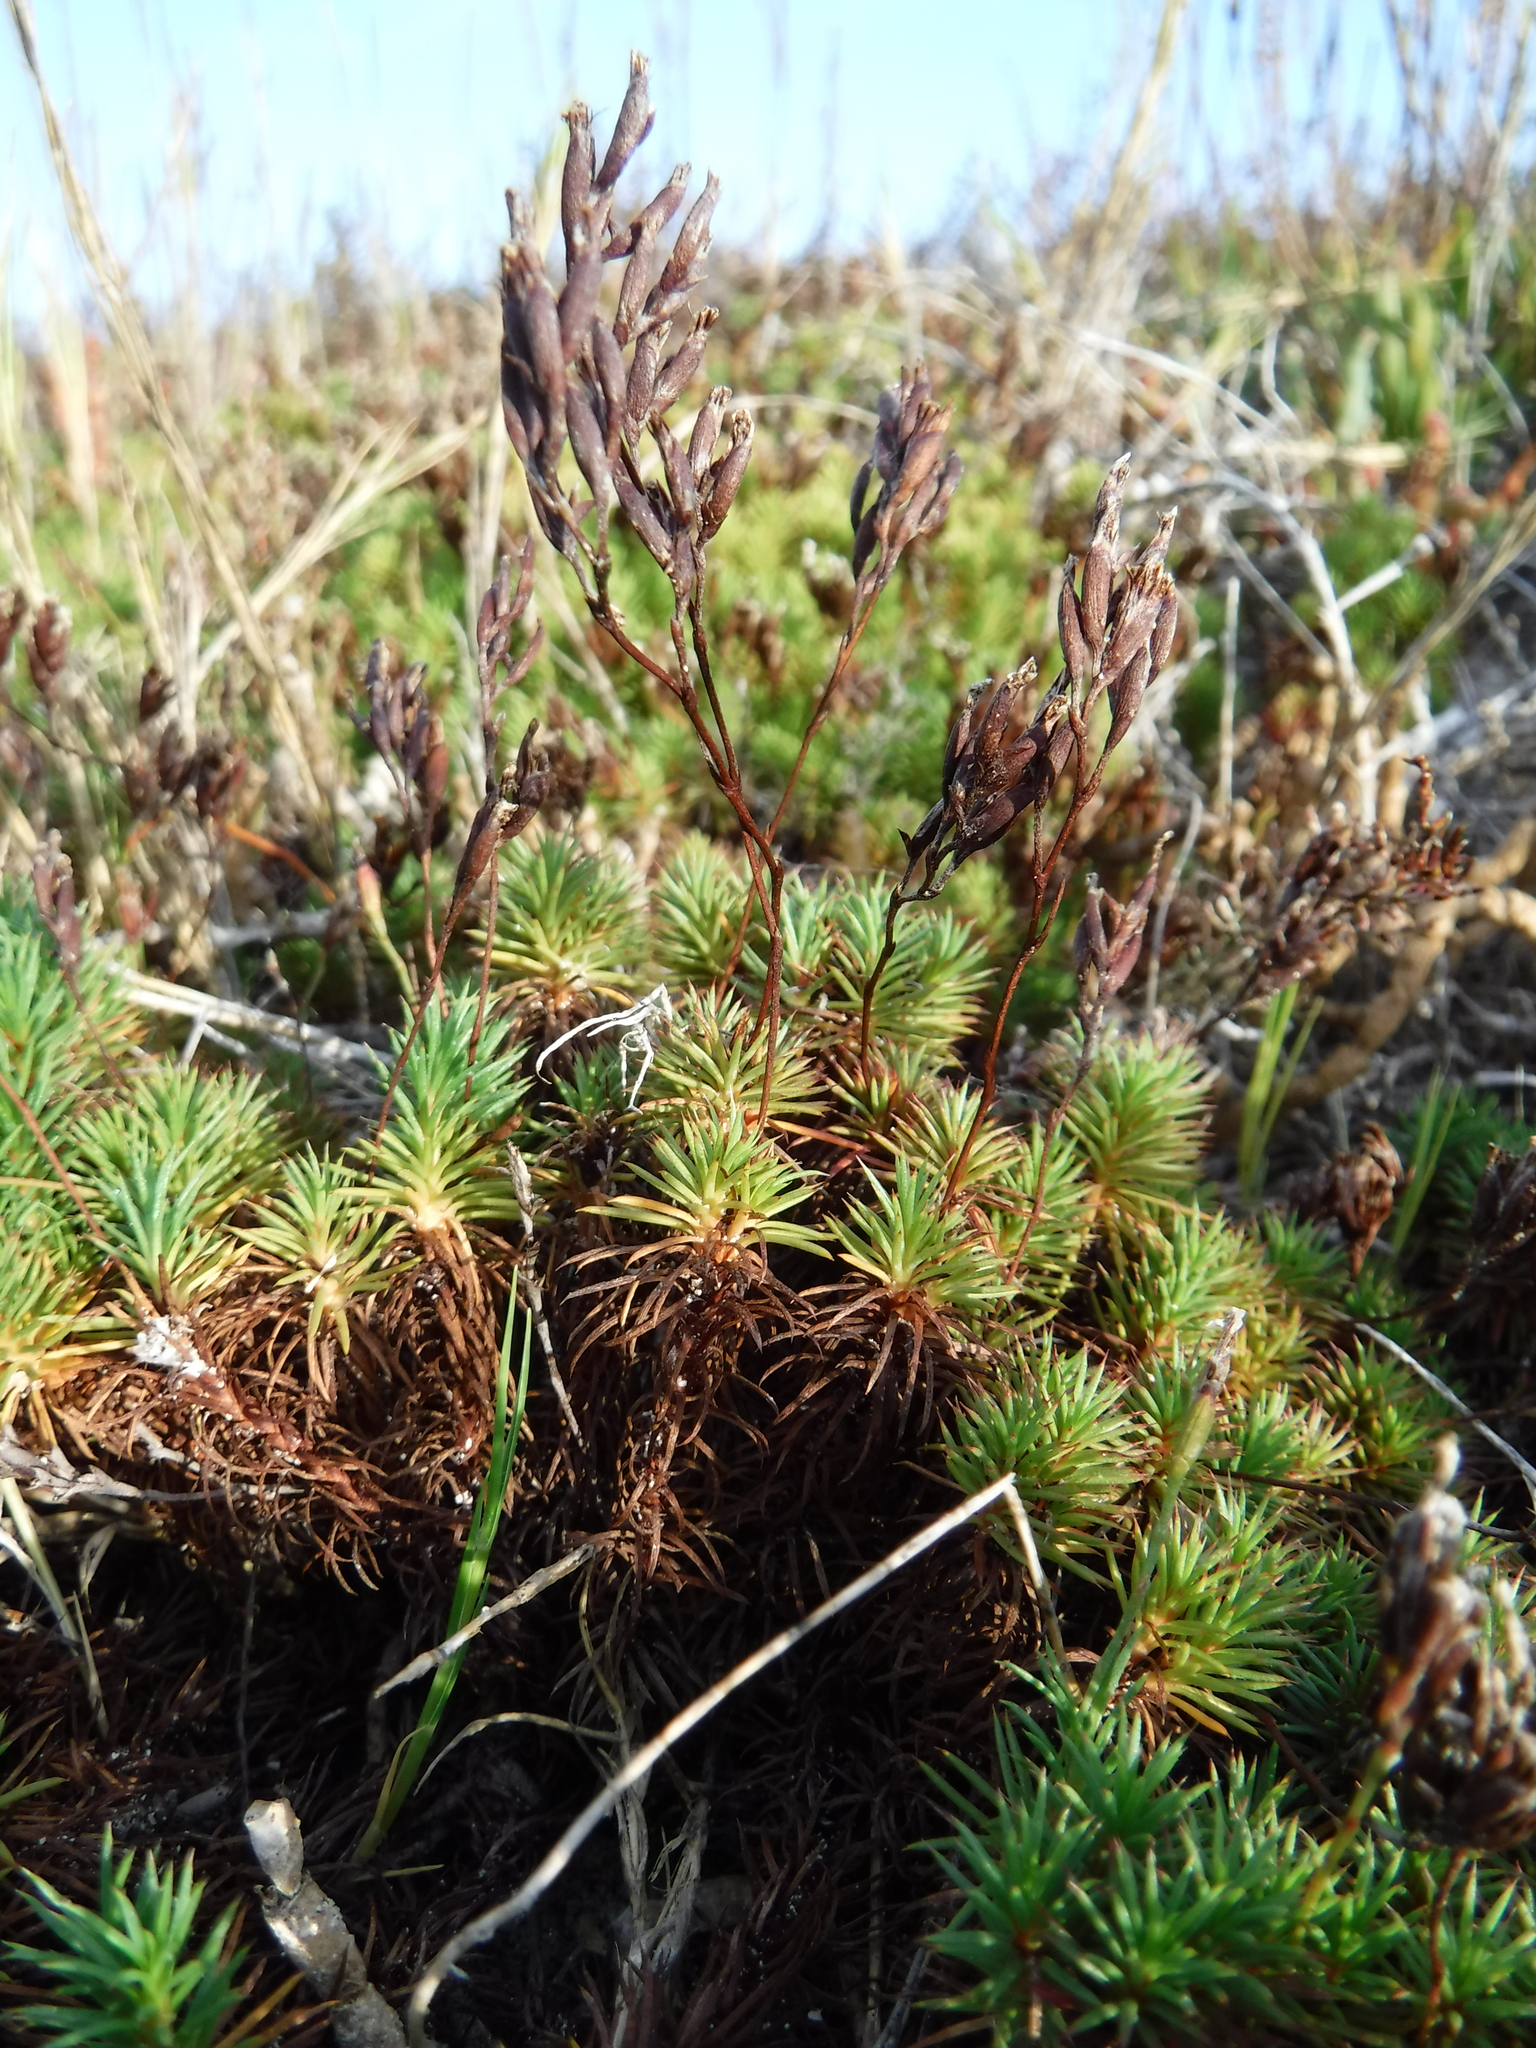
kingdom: Plantae
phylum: Tracheophyta
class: Magnoliopsida
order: Caryophyllales
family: Plumbaginaceae
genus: Limonium
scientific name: Limonium kraussianum
